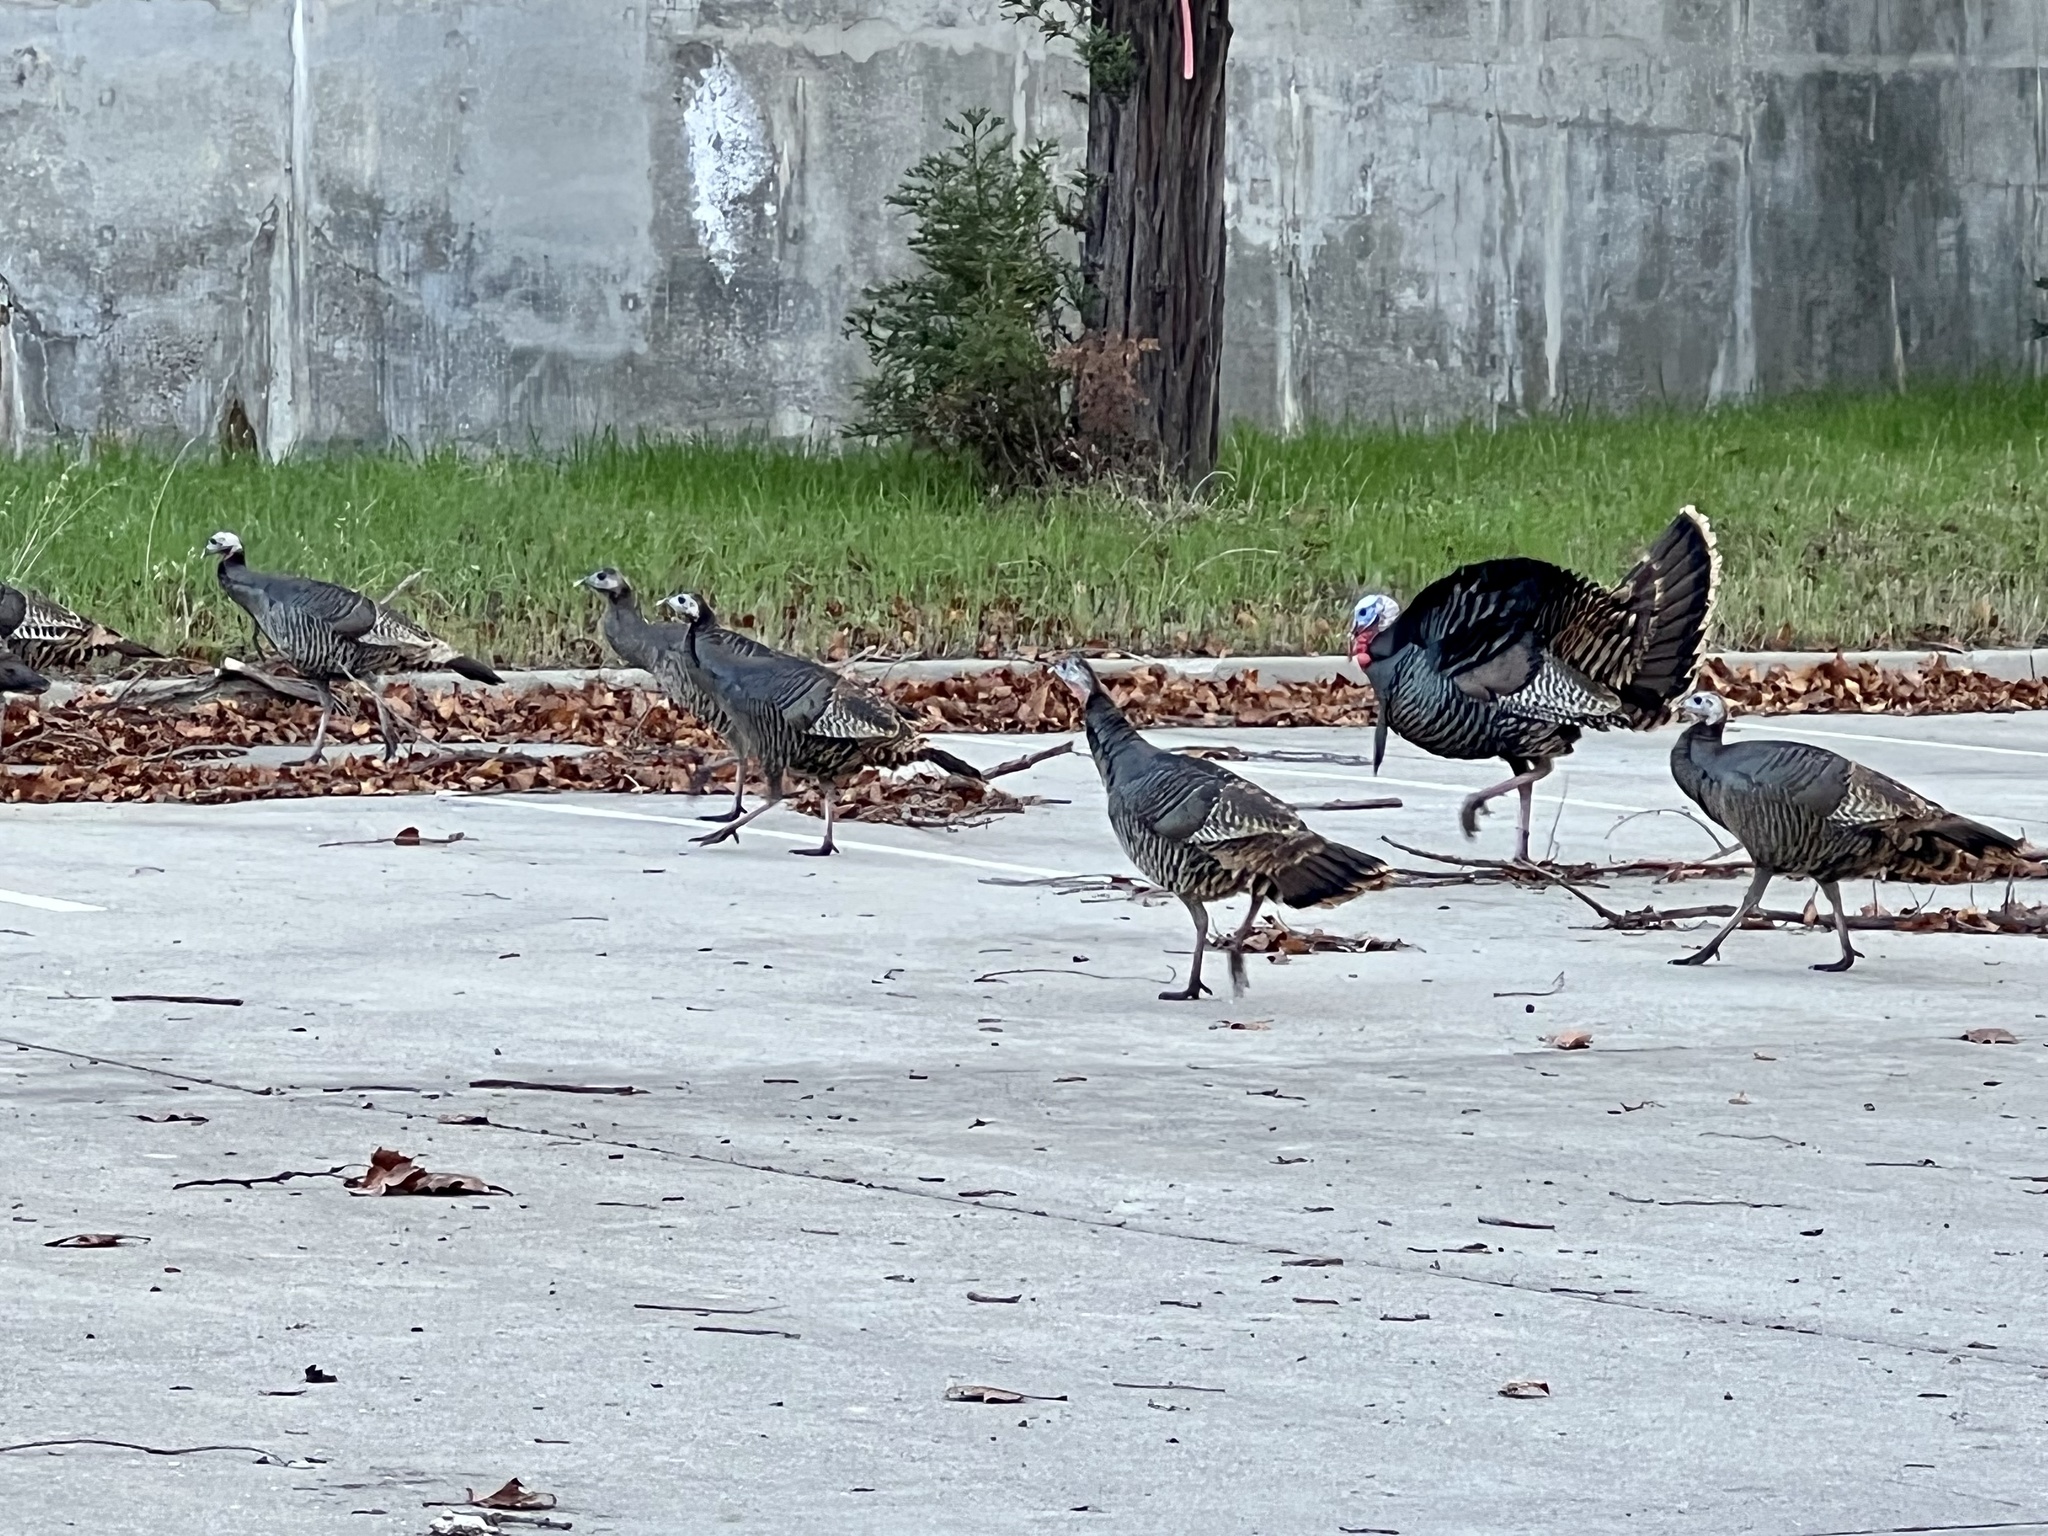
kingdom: Animalia
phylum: Chordata
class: Aves
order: Galliformes
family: Phasianidae
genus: Meleagris
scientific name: Meleagris gallopavo
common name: Wild turkey
